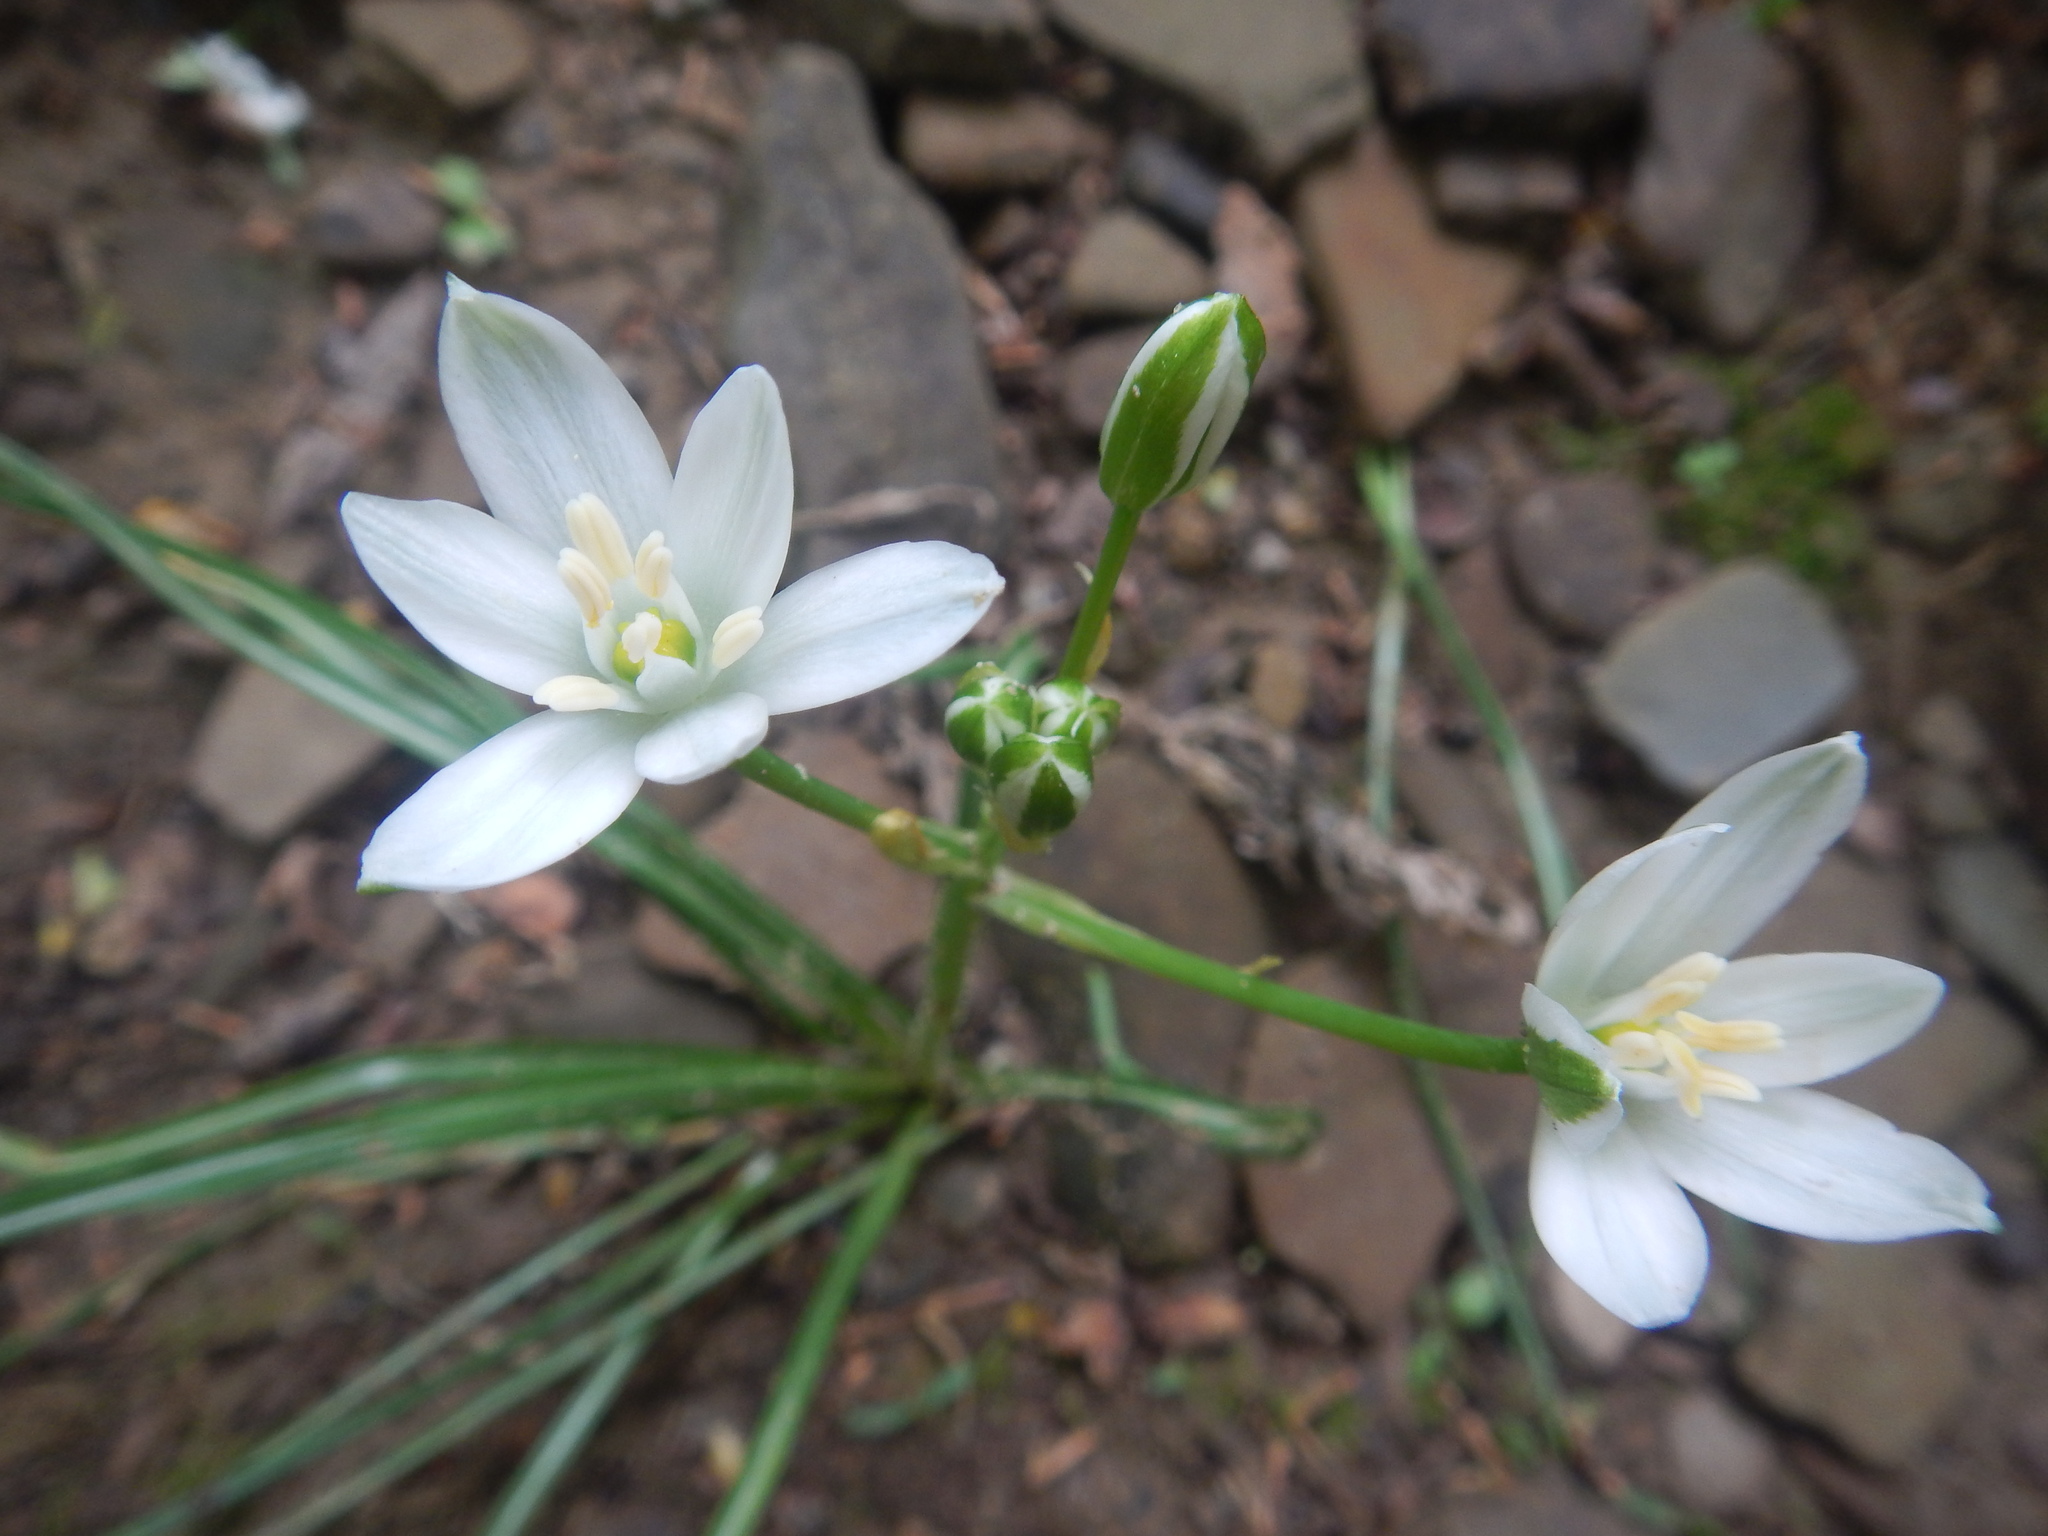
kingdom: Plantae
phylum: Tracheophyta
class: Liliopsida
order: Asparagales
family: Asparagaceae
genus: Ornithogalum
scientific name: Ornithogalum umbellatum
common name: Garden star-of-bethlehem
